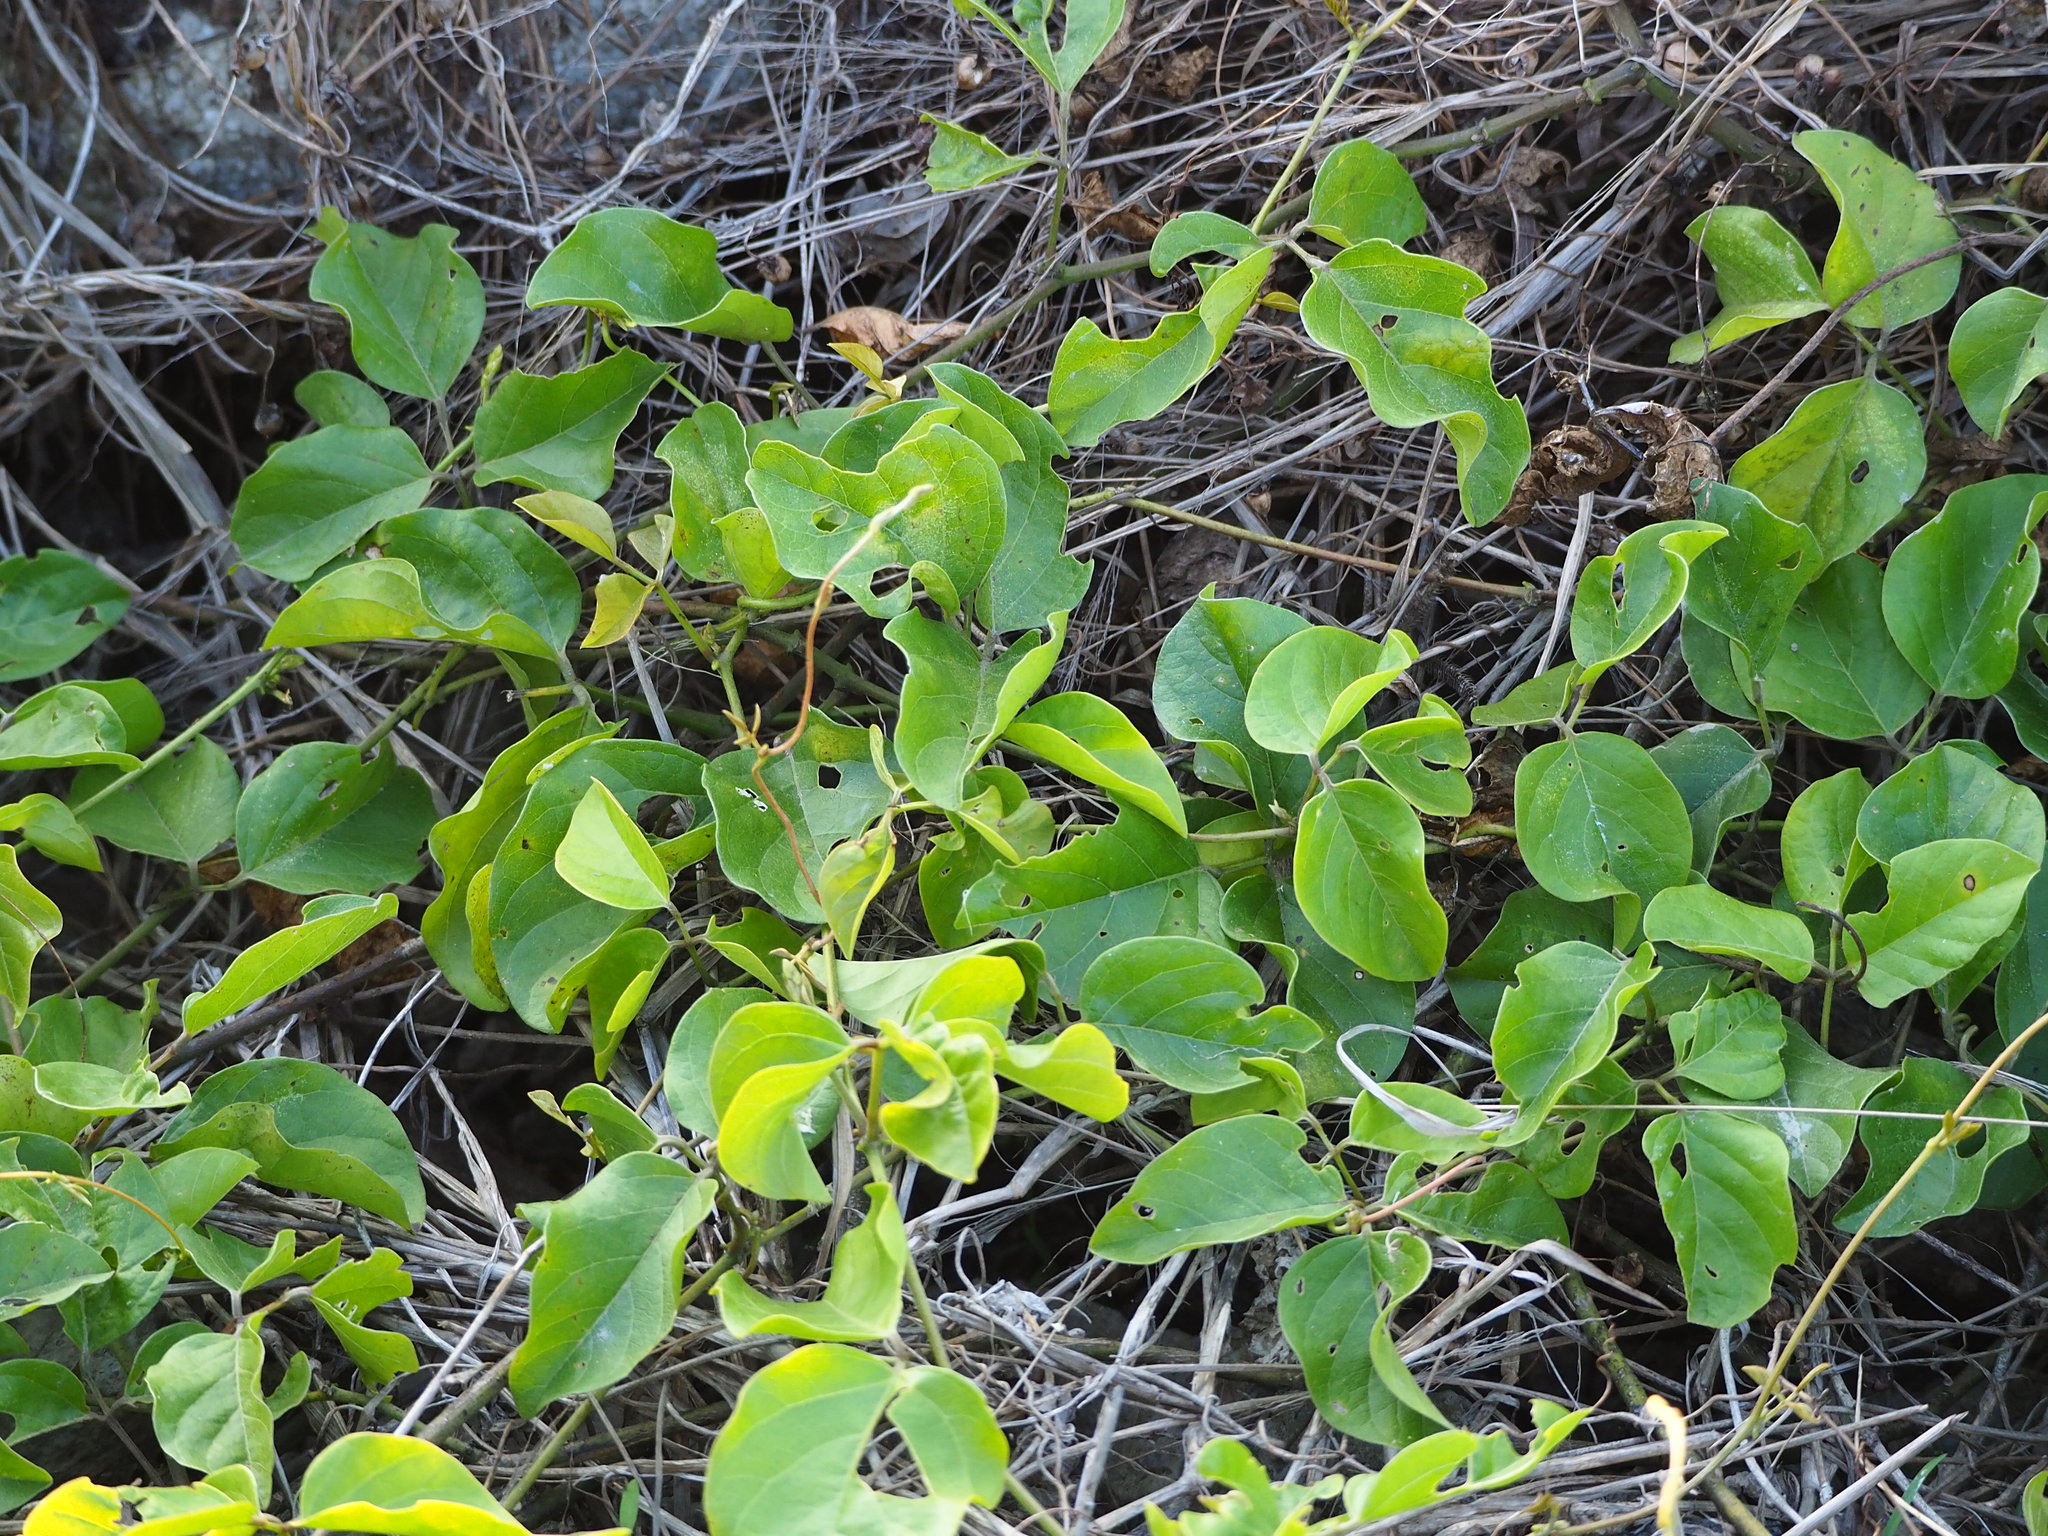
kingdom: Plantae
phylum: Tracheophyta
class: Magnoliopsida
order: Fabales
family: Fabaceae
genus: Canavalia
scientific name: Canavalia rosea
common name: Beach-bean
